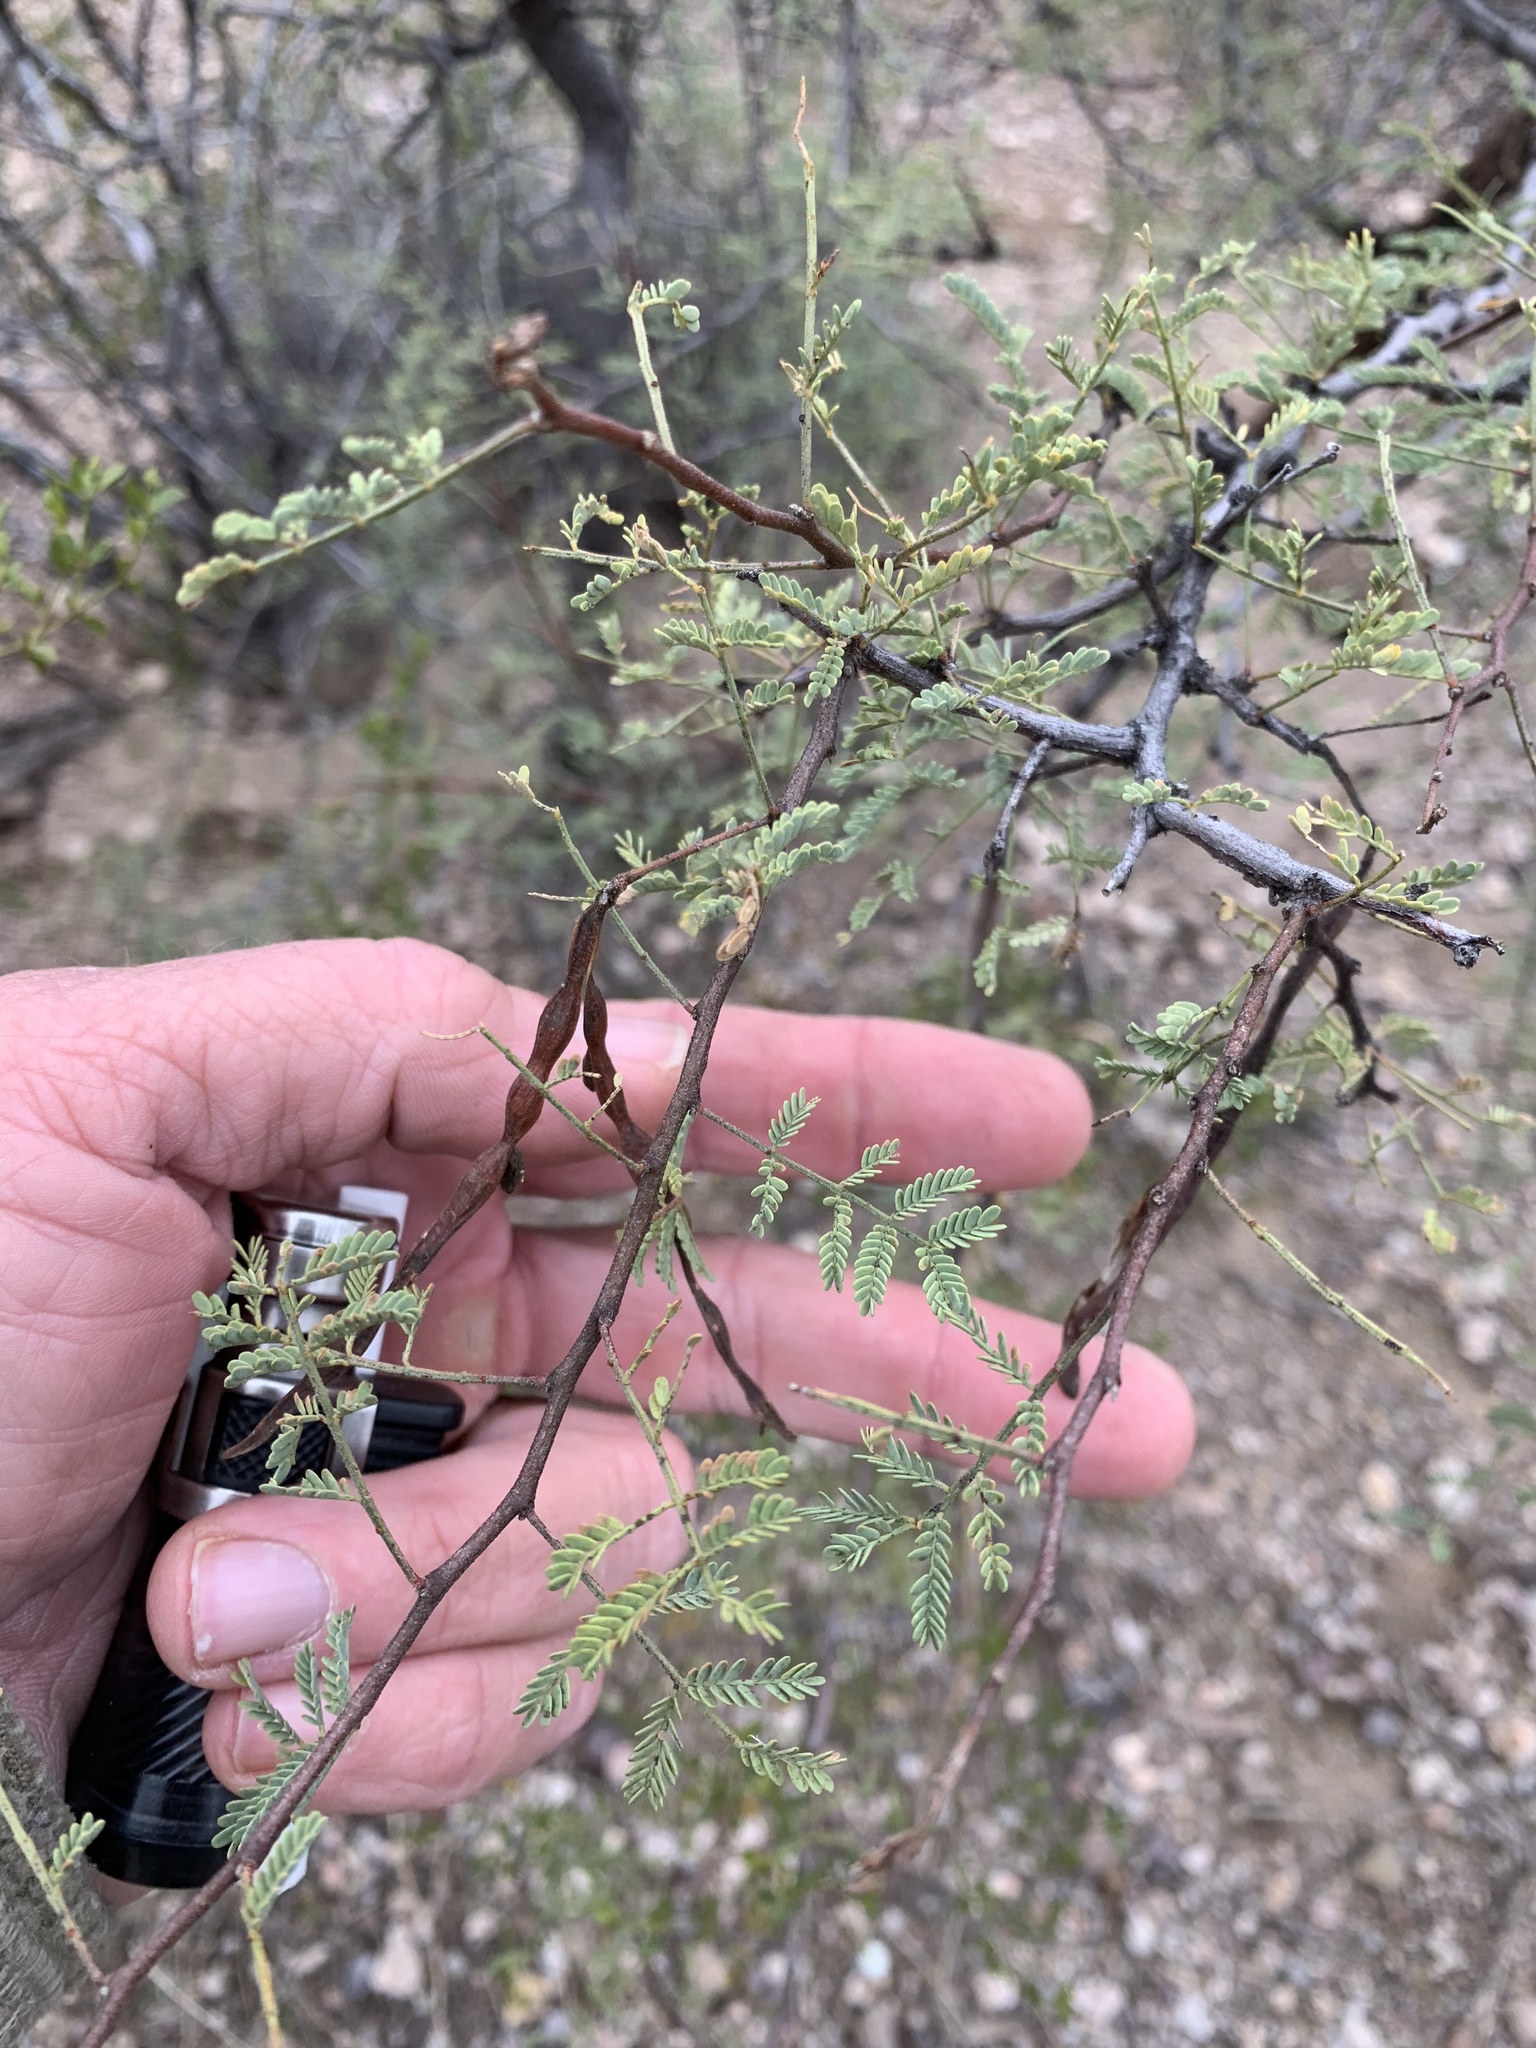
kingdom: Plantae
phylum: Tracheophyta
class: Magnoliopsida
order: Fabales
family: Fabaceae
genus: Vachellia
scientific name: Vachellia constricta
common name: Mescat acacia
